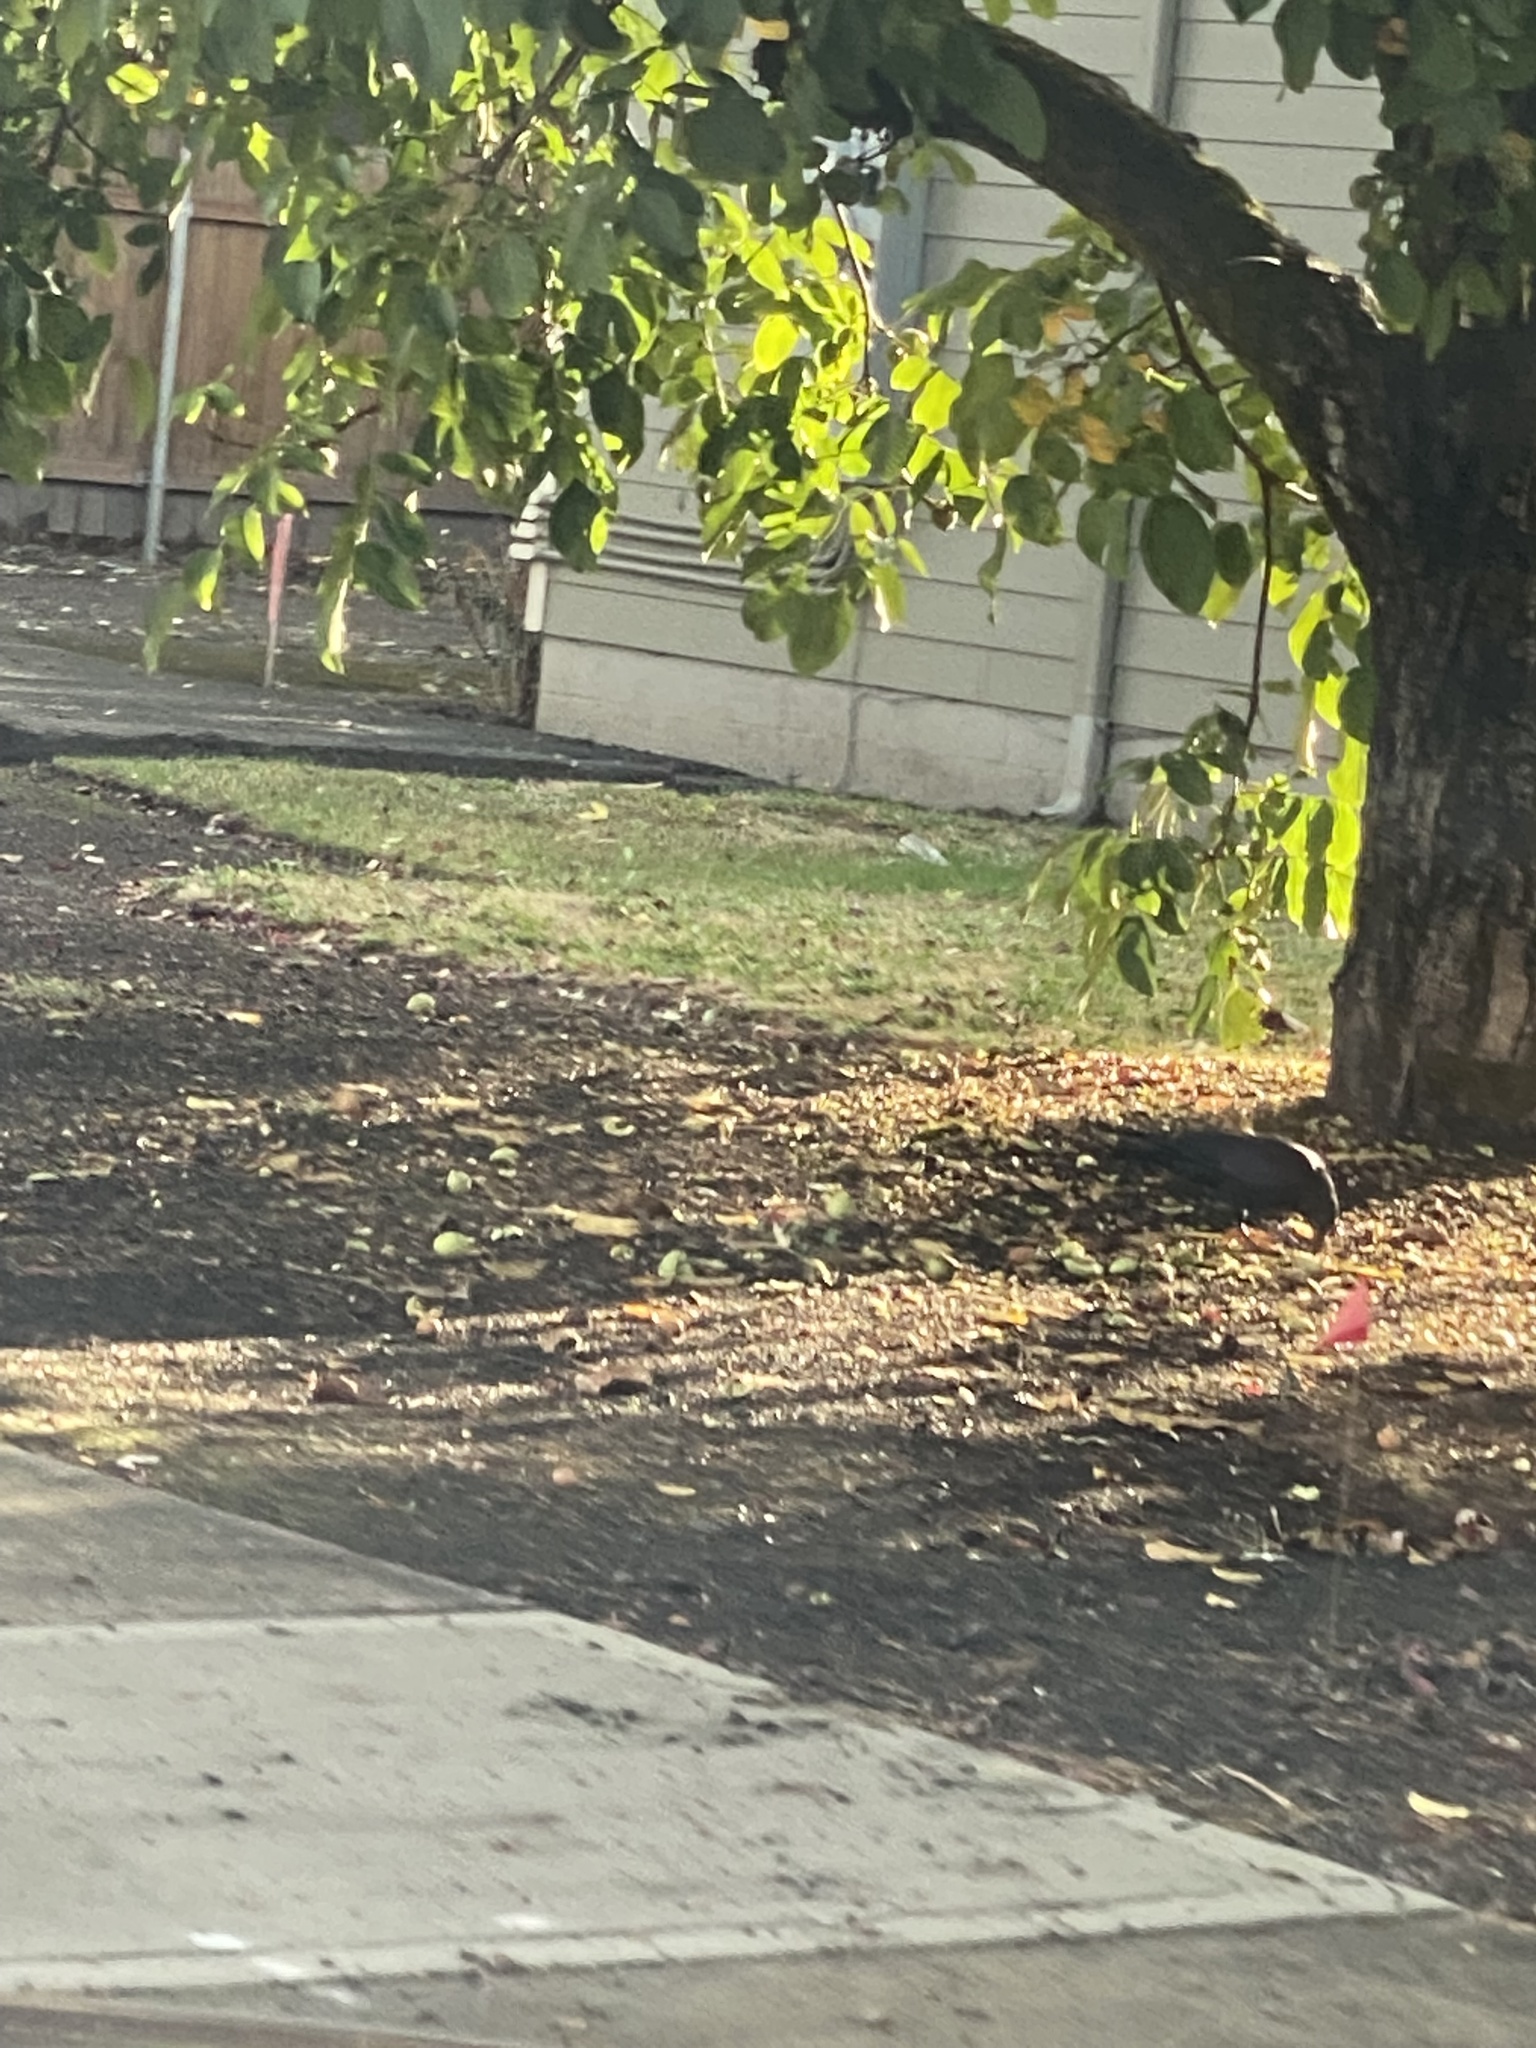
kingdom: Animalia
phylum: Chordata
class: Aves
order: Passeriformes
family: Corvidae
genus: Corvus
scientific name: Corvus brachyrhynchos
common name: American crow
